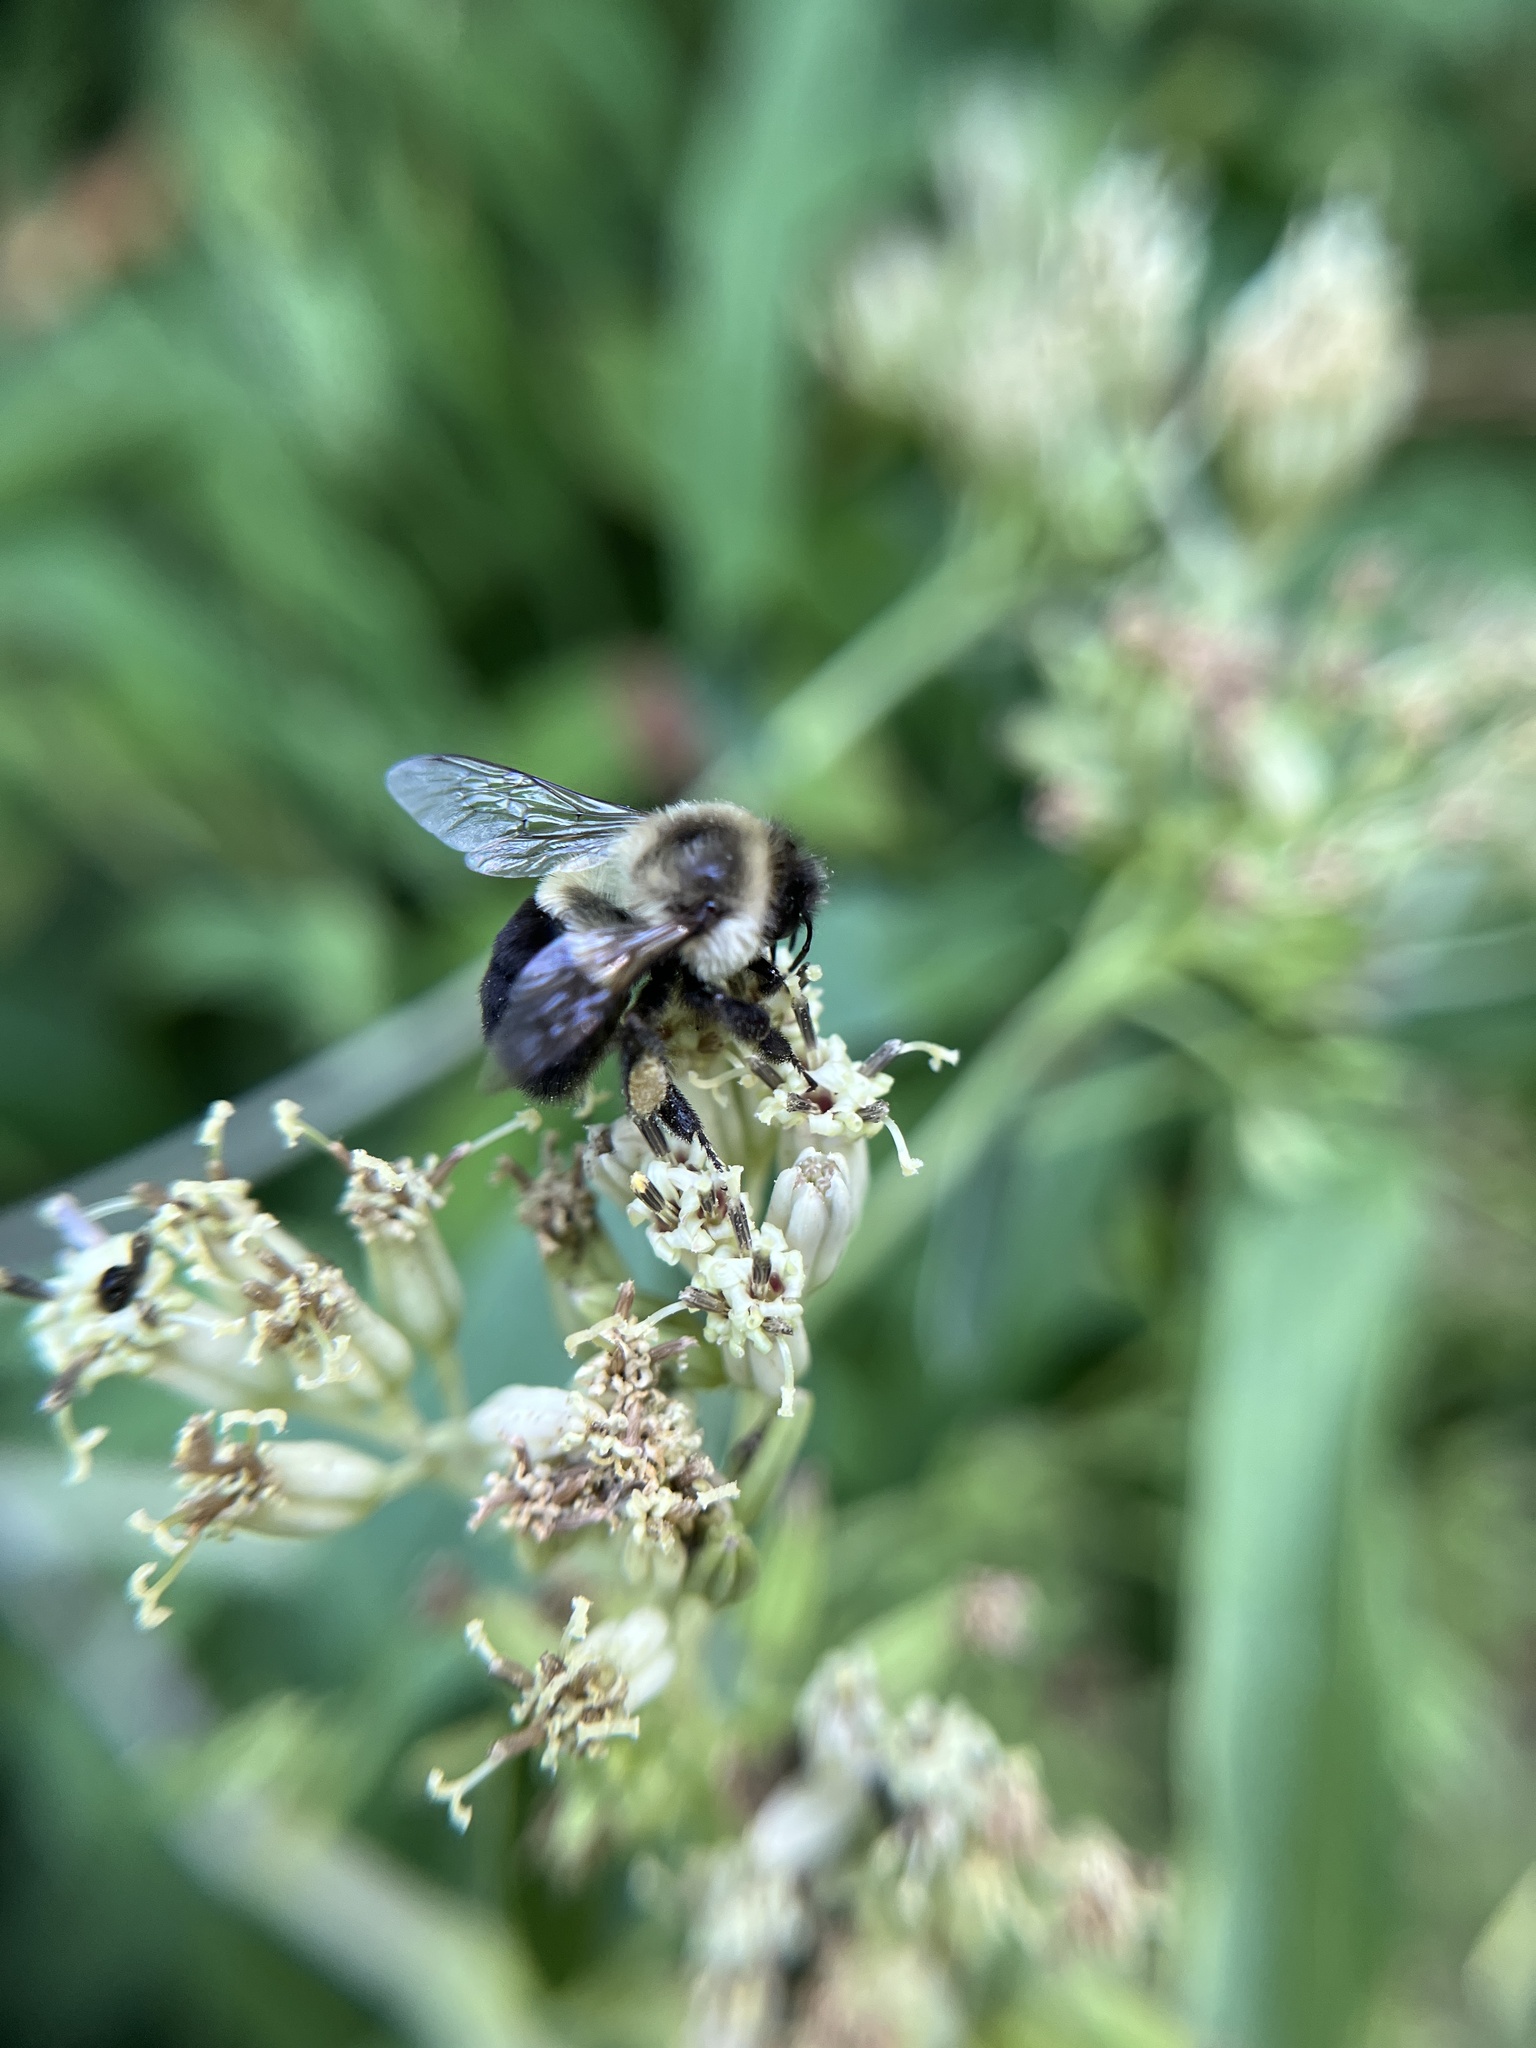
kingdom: Animalia
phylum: Arthropoda
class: Insecta
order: Hymenoptera
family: Apidae
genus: Bombus
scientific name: Bombus impatiens
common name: Common eastern bumble bee
